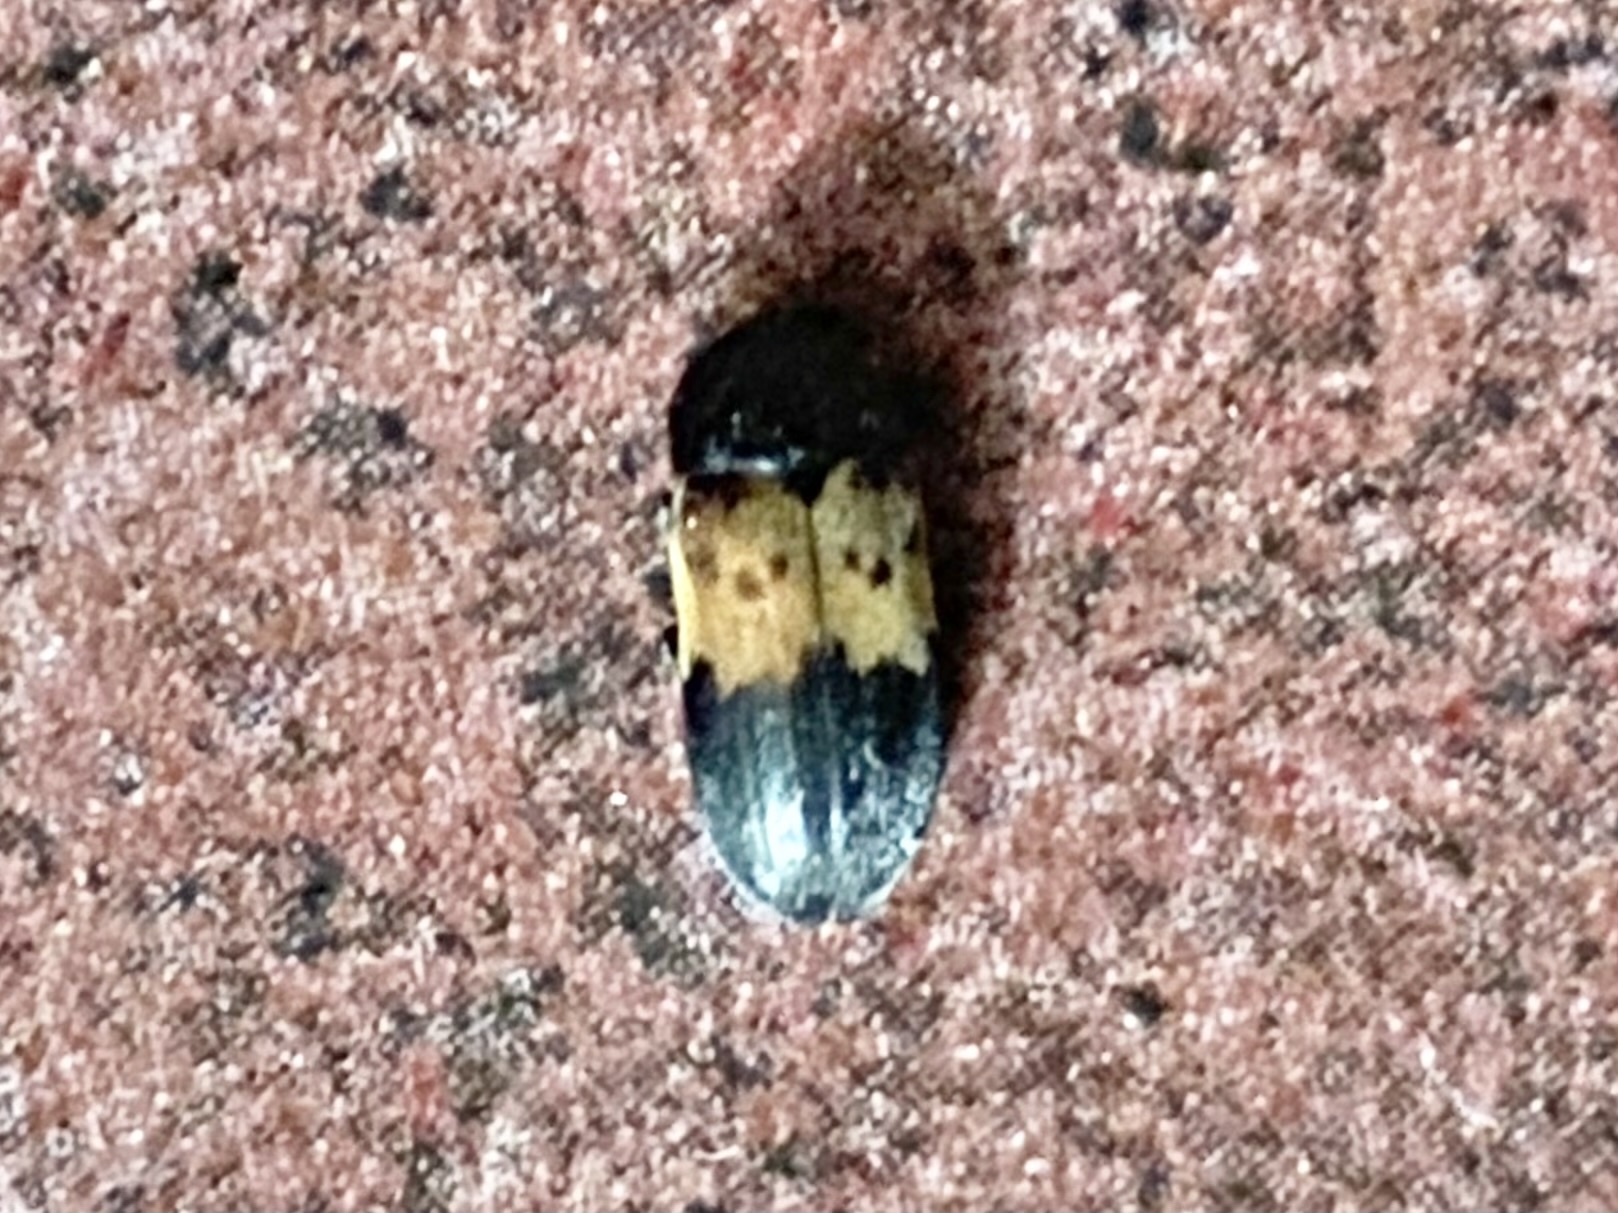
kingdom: Animalia
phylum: Arthropoda
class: Insecta
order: Coleoptera
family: Dermestidae
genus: Dermestes
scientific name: Dermestes lardarius
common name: Larder beetle
